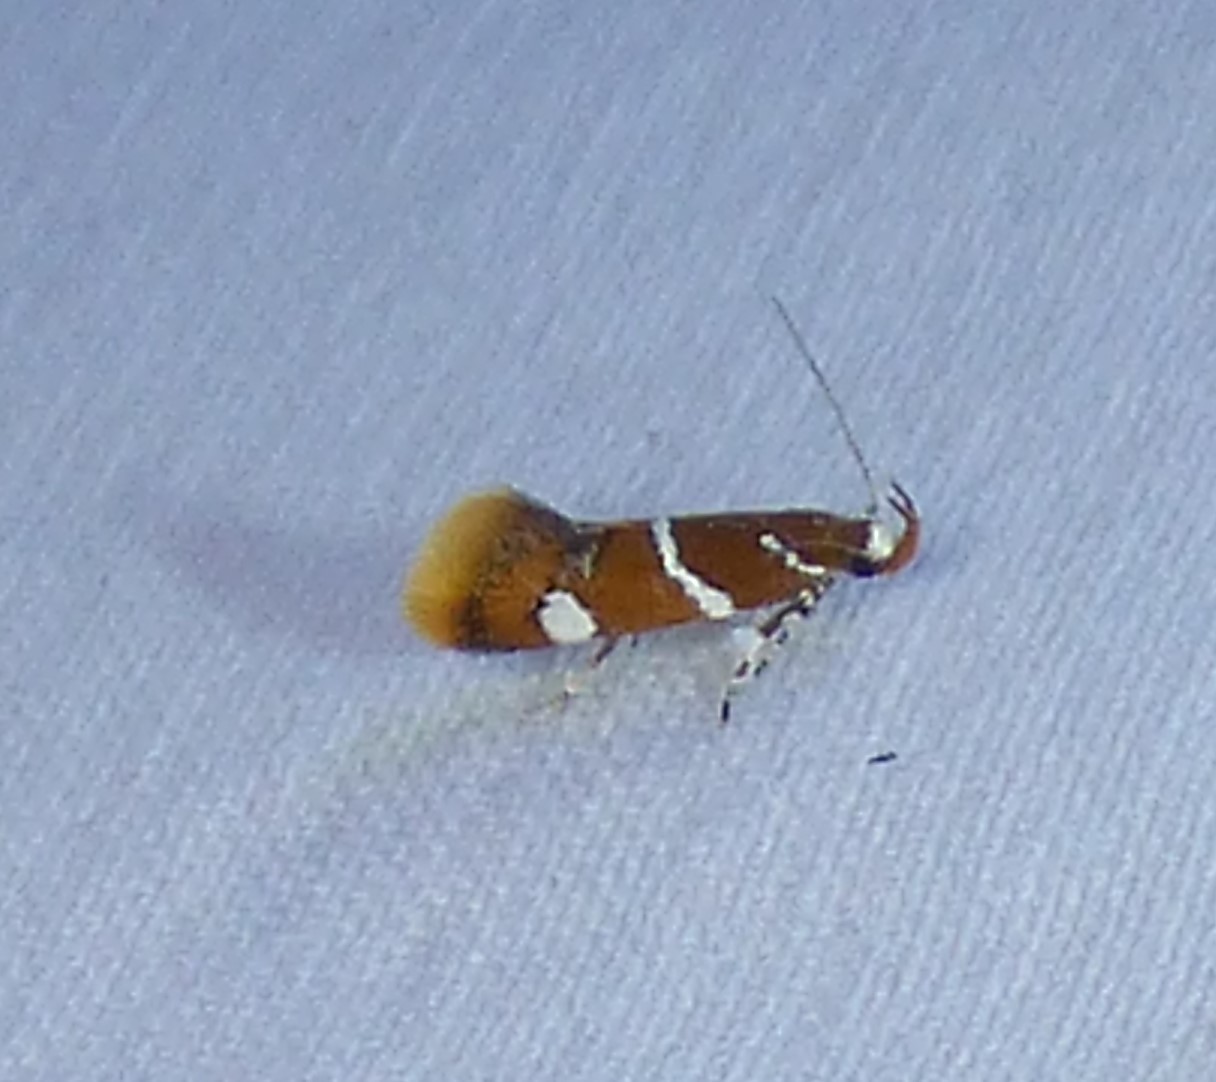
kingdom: Animalia
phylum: Arthropoda
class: Insecta
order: Lepidoptera
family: Oecophoridae
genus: Promalactis
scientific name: Promalactis suzukiella
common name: Moth
